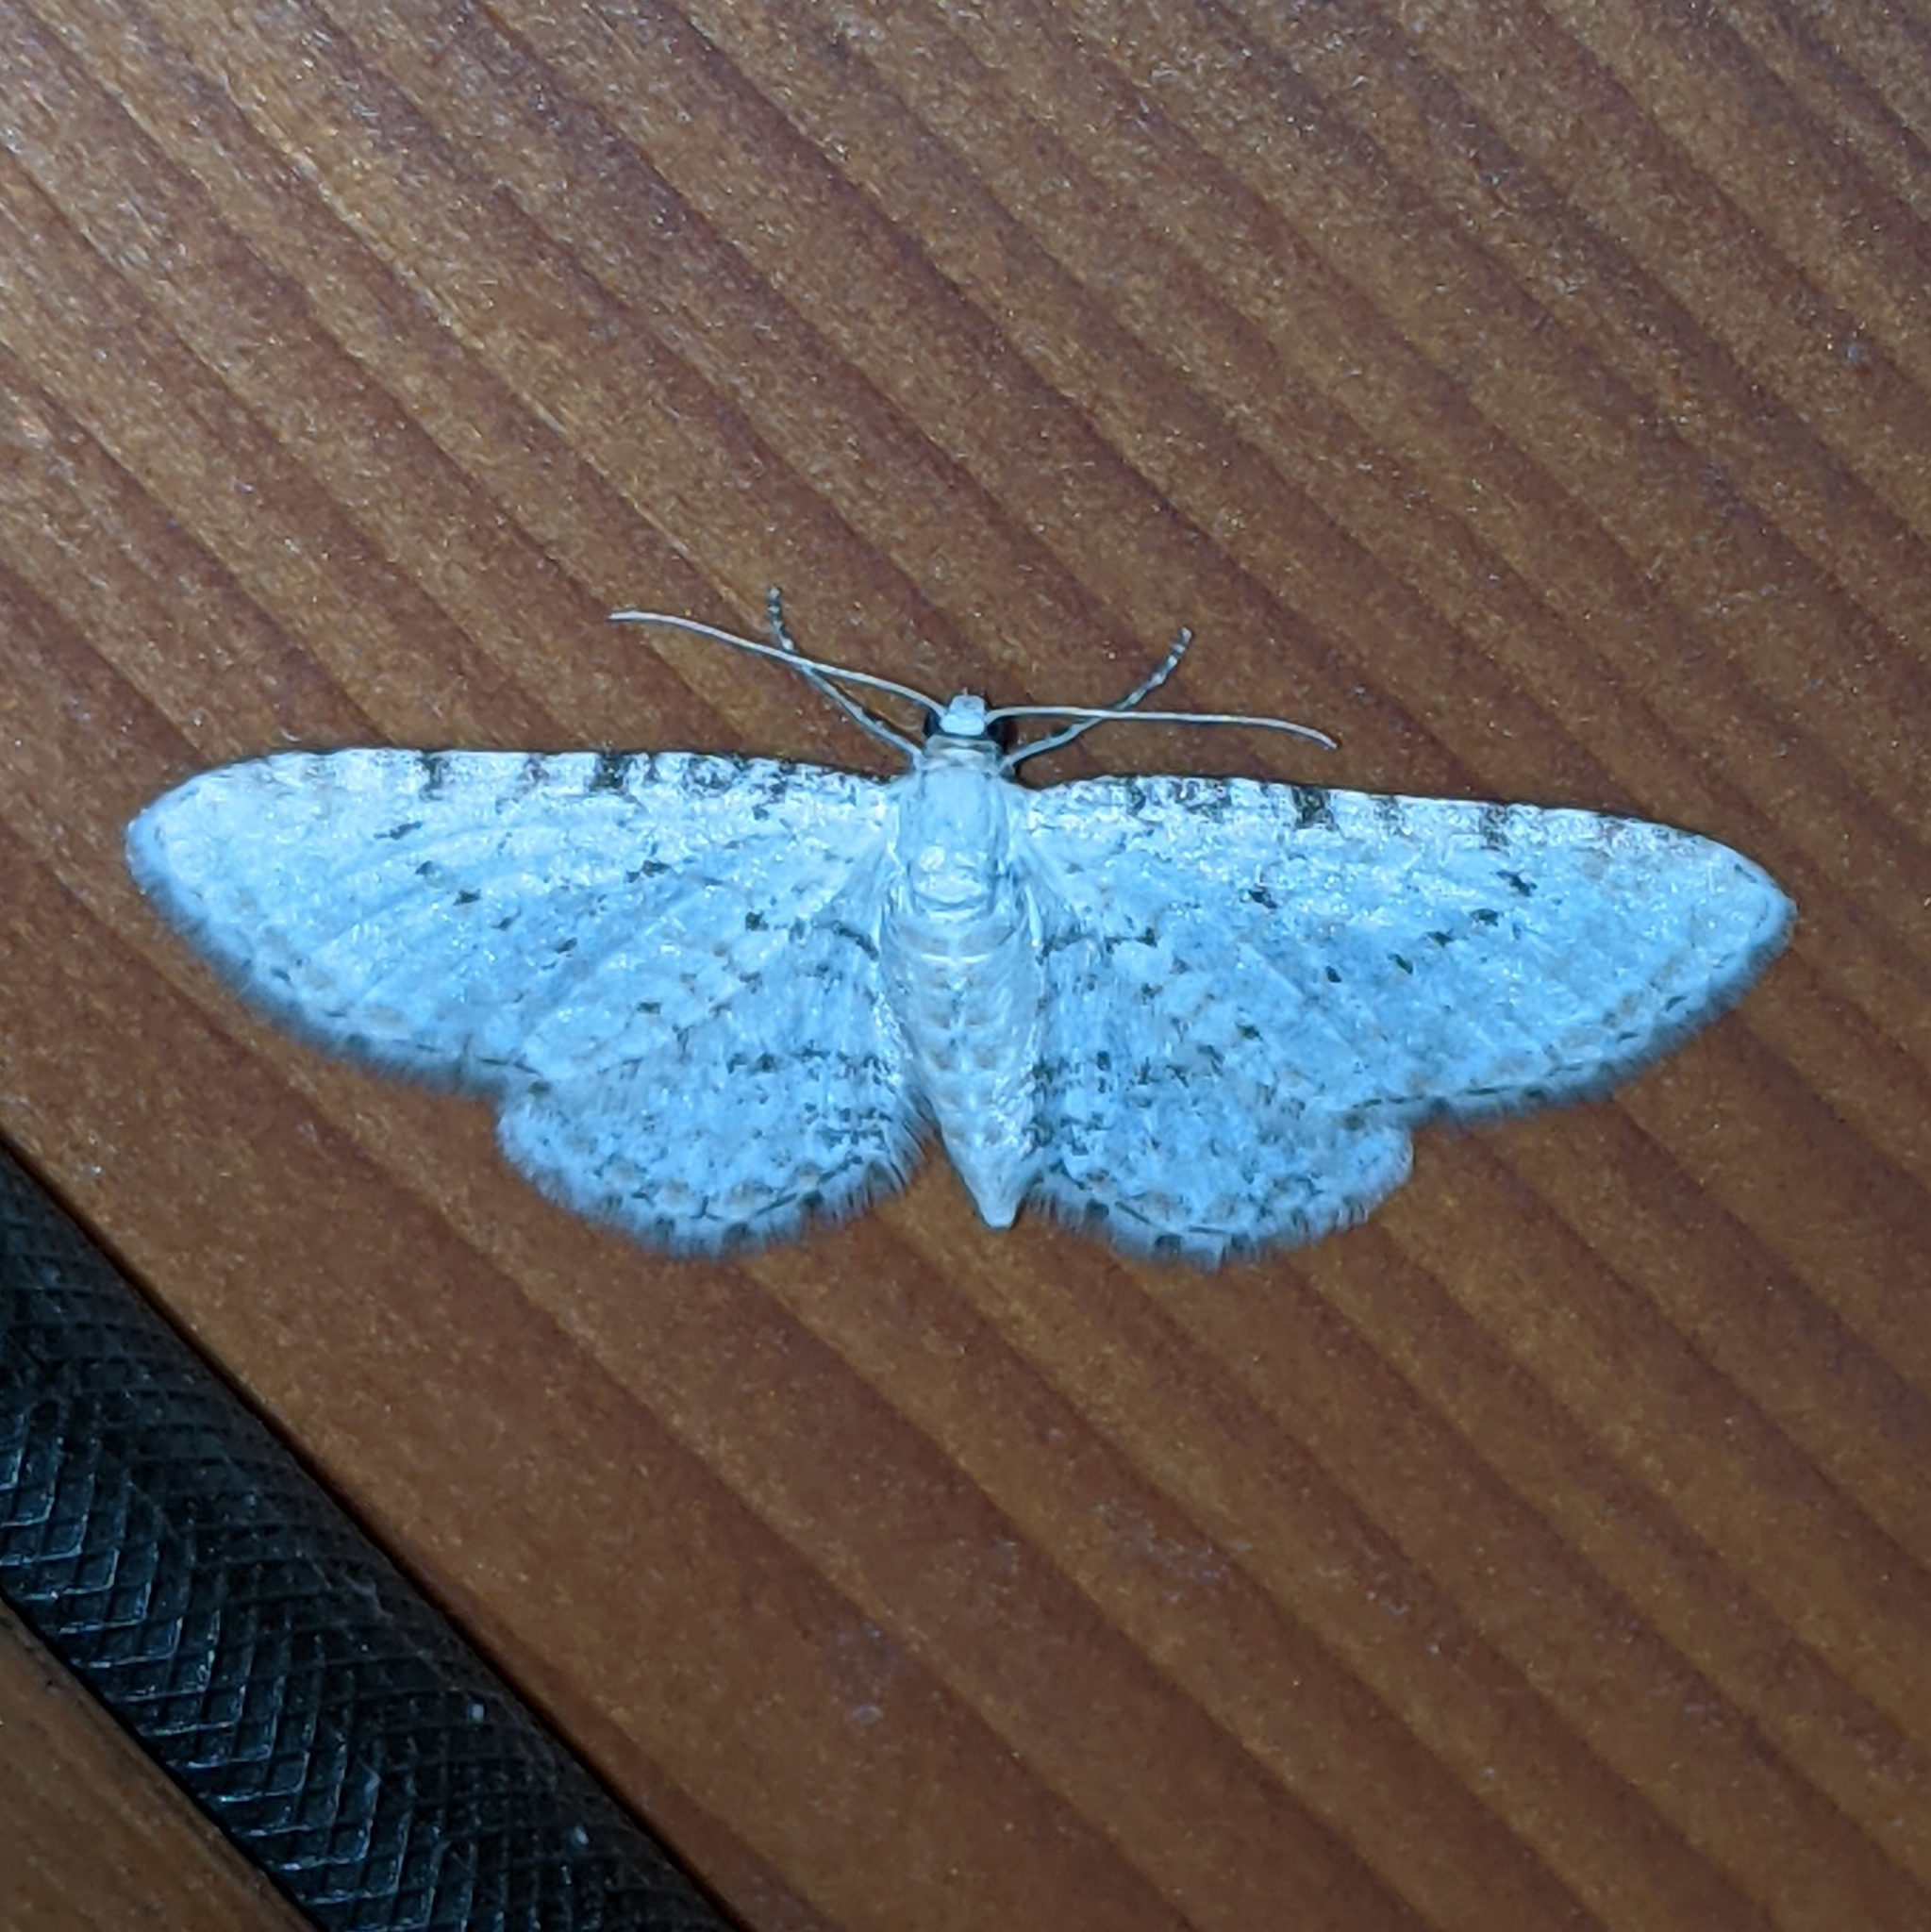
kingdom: Animalia
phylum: Arthropoda
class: Insecta
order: Lepidoptera
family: Geometridae
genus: Eupithecia
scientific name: Eupithecia cretaceata
